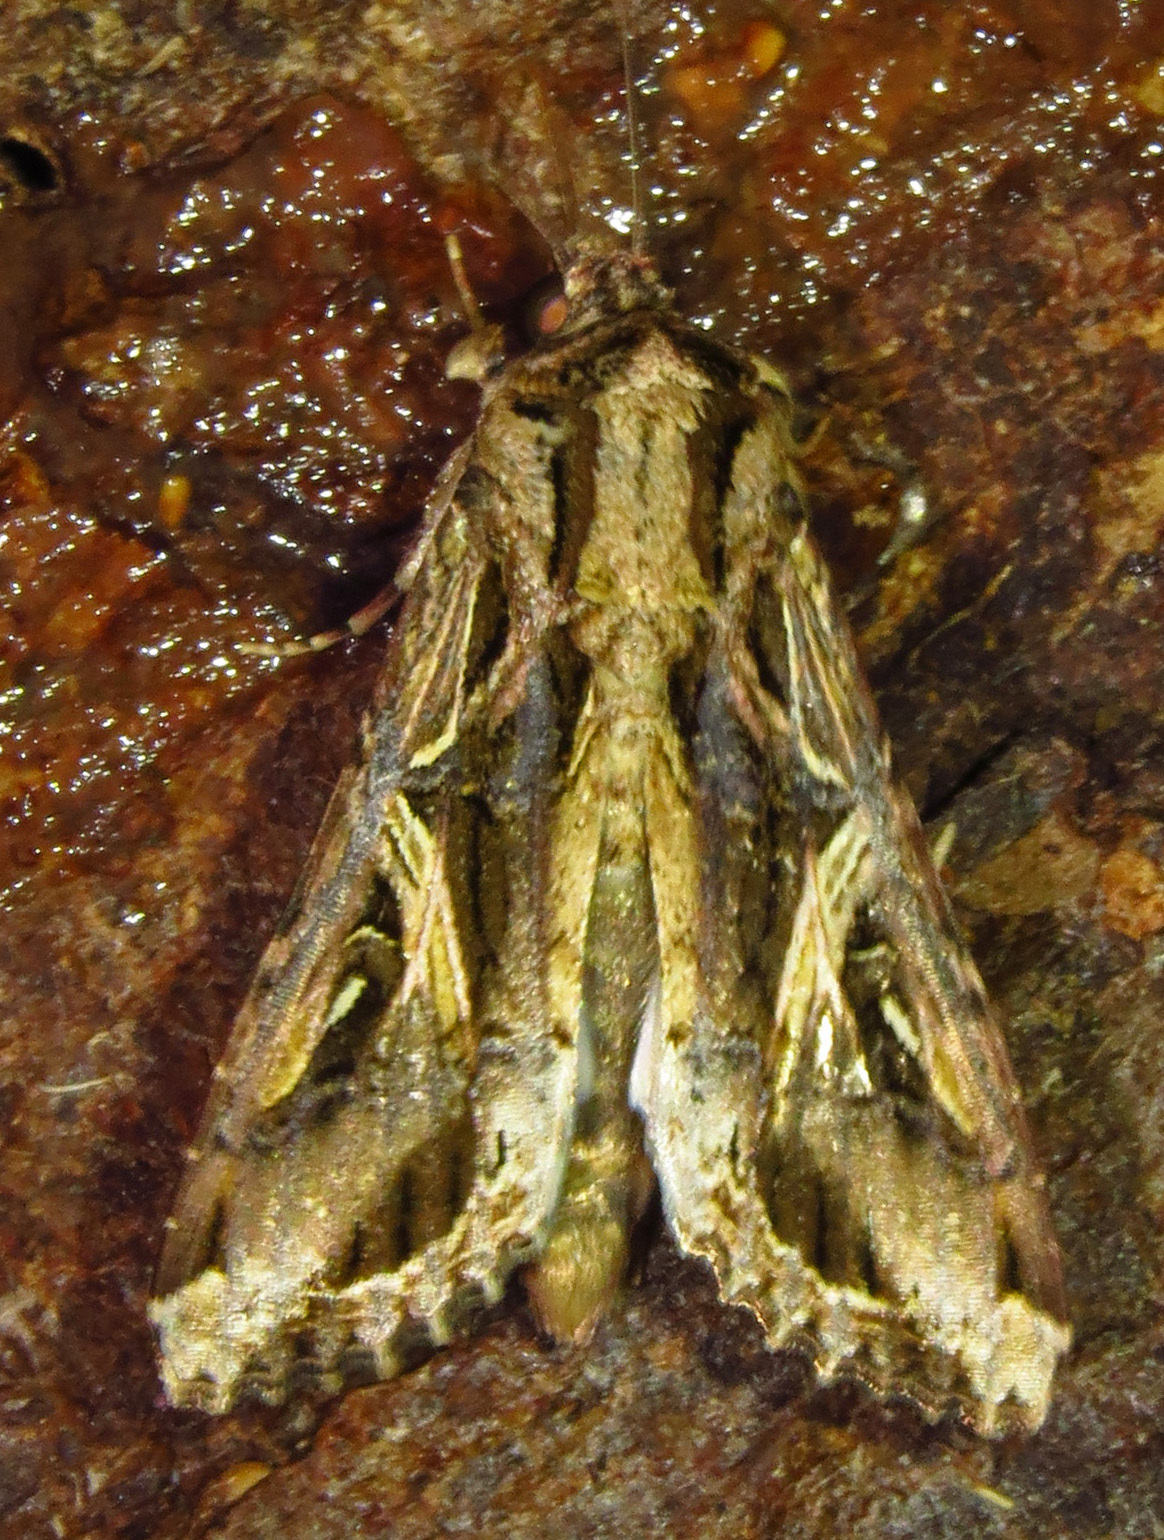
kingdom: Animalia
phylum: Arthropoda
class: Insecta
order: Lepidoptera
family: Noctuidae
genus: Spodoptera
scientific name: Spodoptera dolichos
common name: Sweetpotato armyworm
